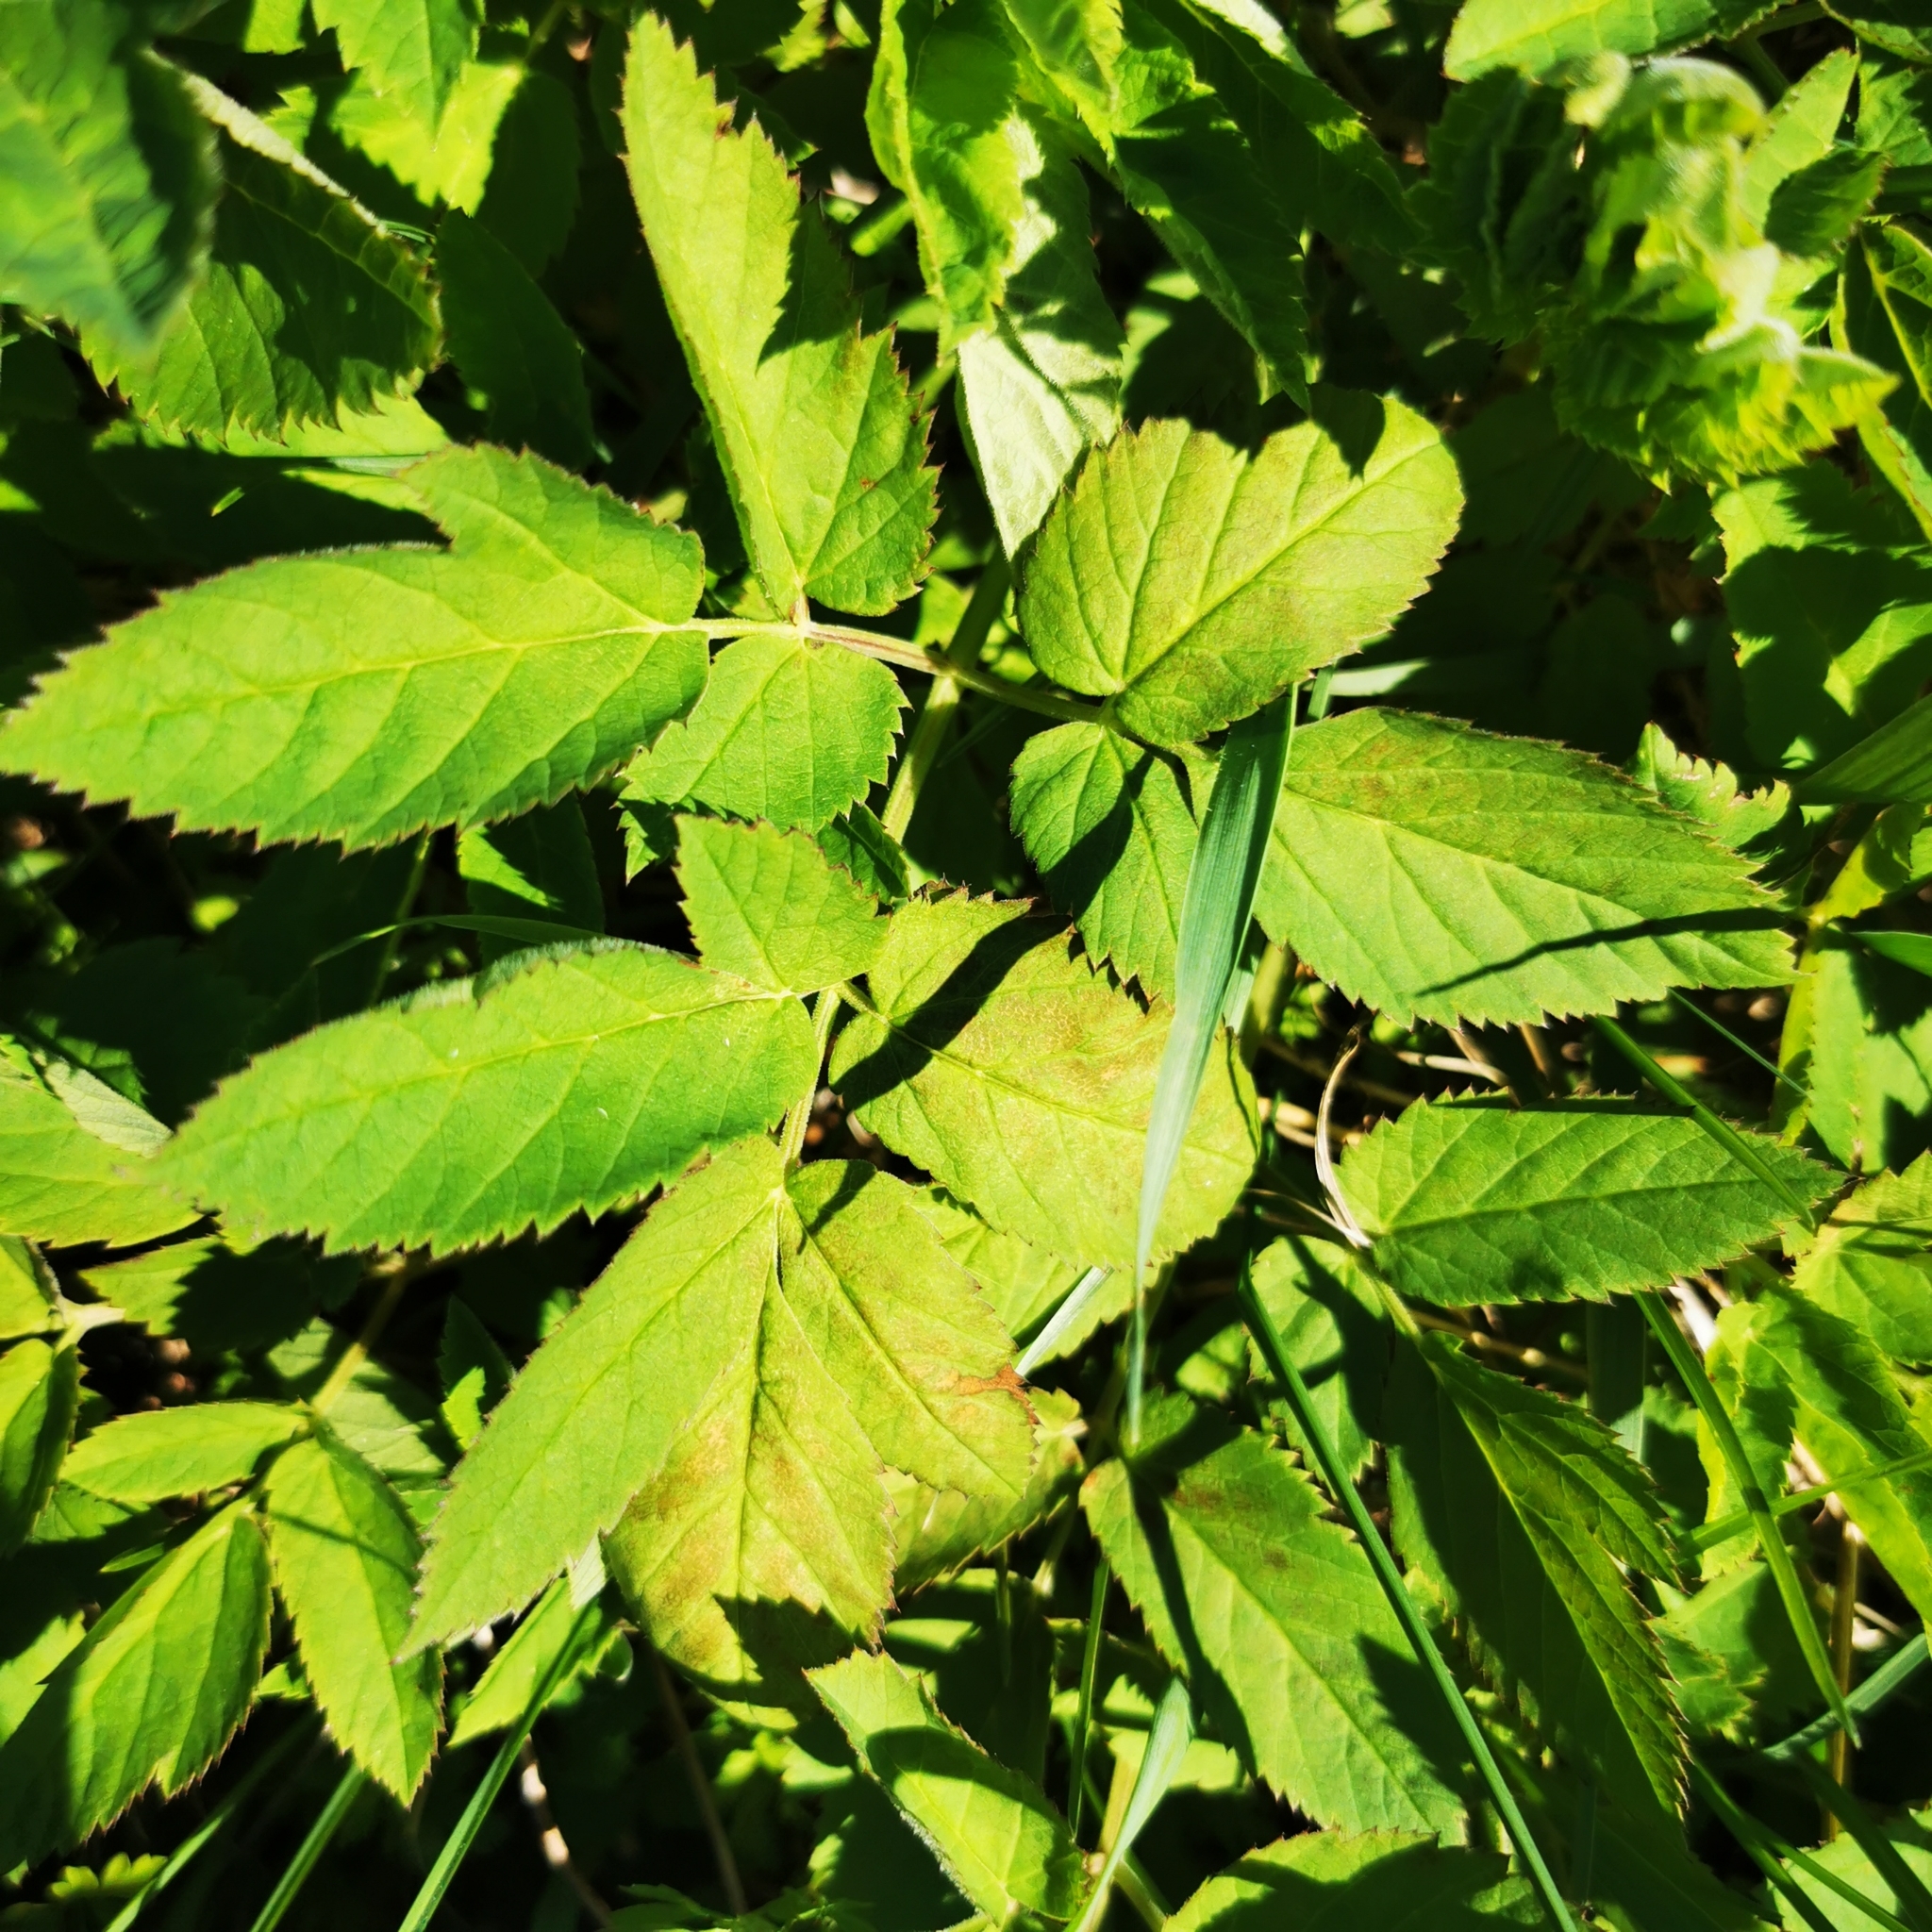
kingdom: Plantae
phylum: Tracheophyta
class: Magnoliopsida
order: Apiales
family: Apiaceae
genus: Aegopodium
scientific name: Aegopodium podagraria
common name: Ground-elder
